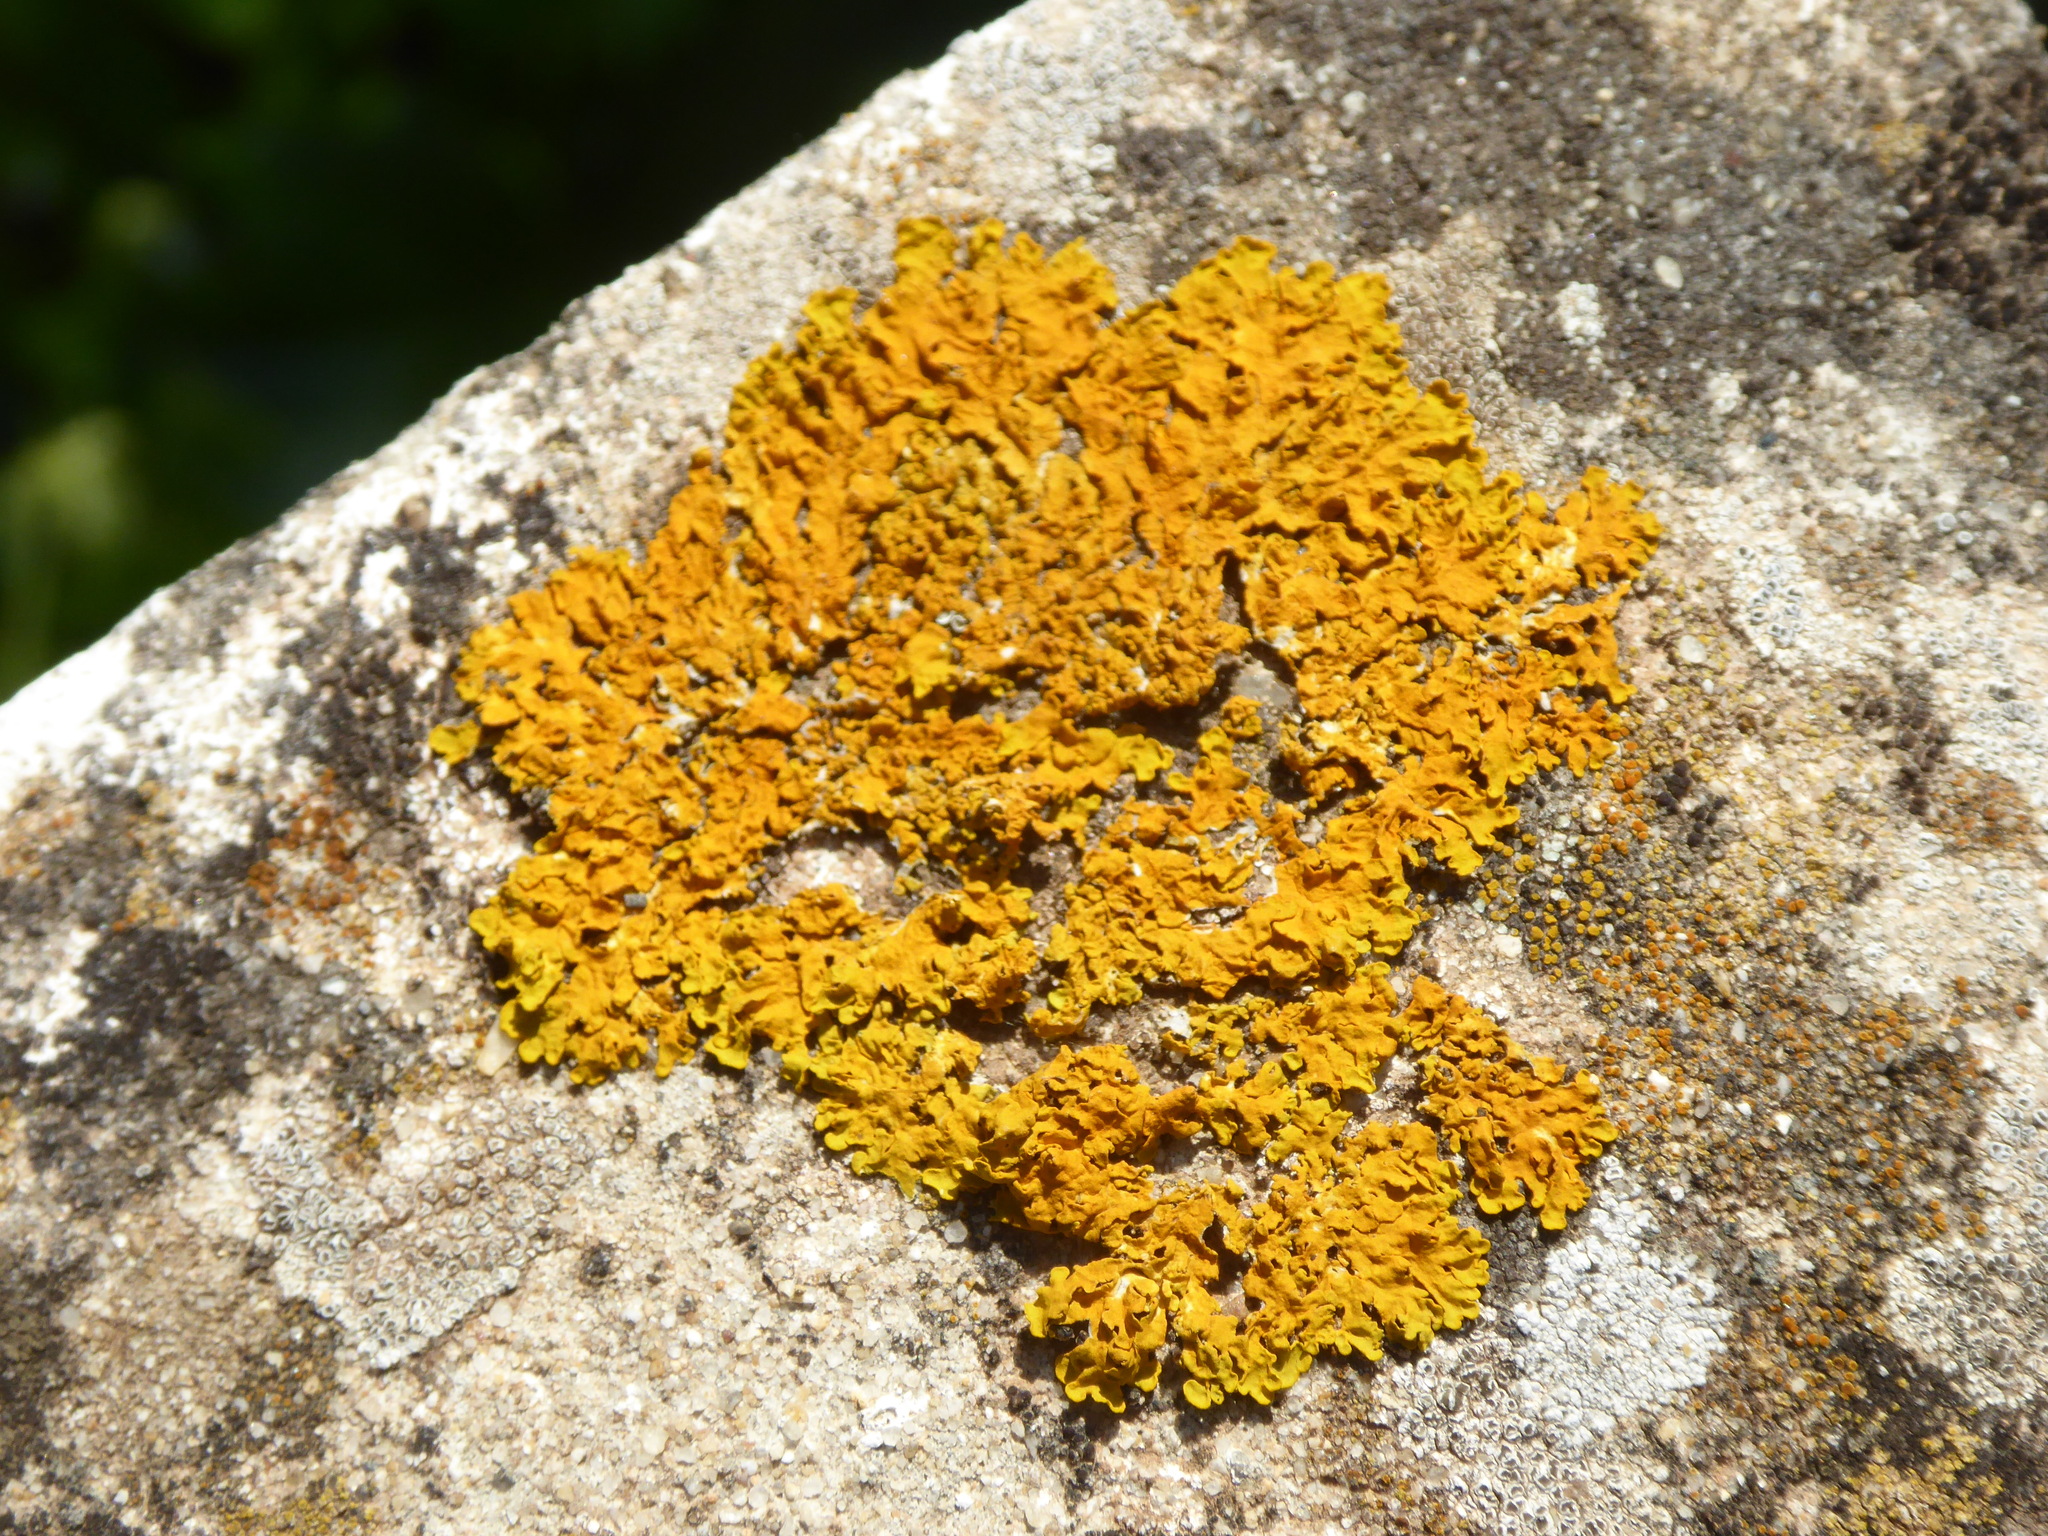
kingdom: Fungi
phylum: Ascomycota
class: Lecanoromycetes
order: Teloschistales
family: Teloschistaceae
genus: Xanthoria
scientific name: Xanthoria parietina
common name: Common orange lichen
